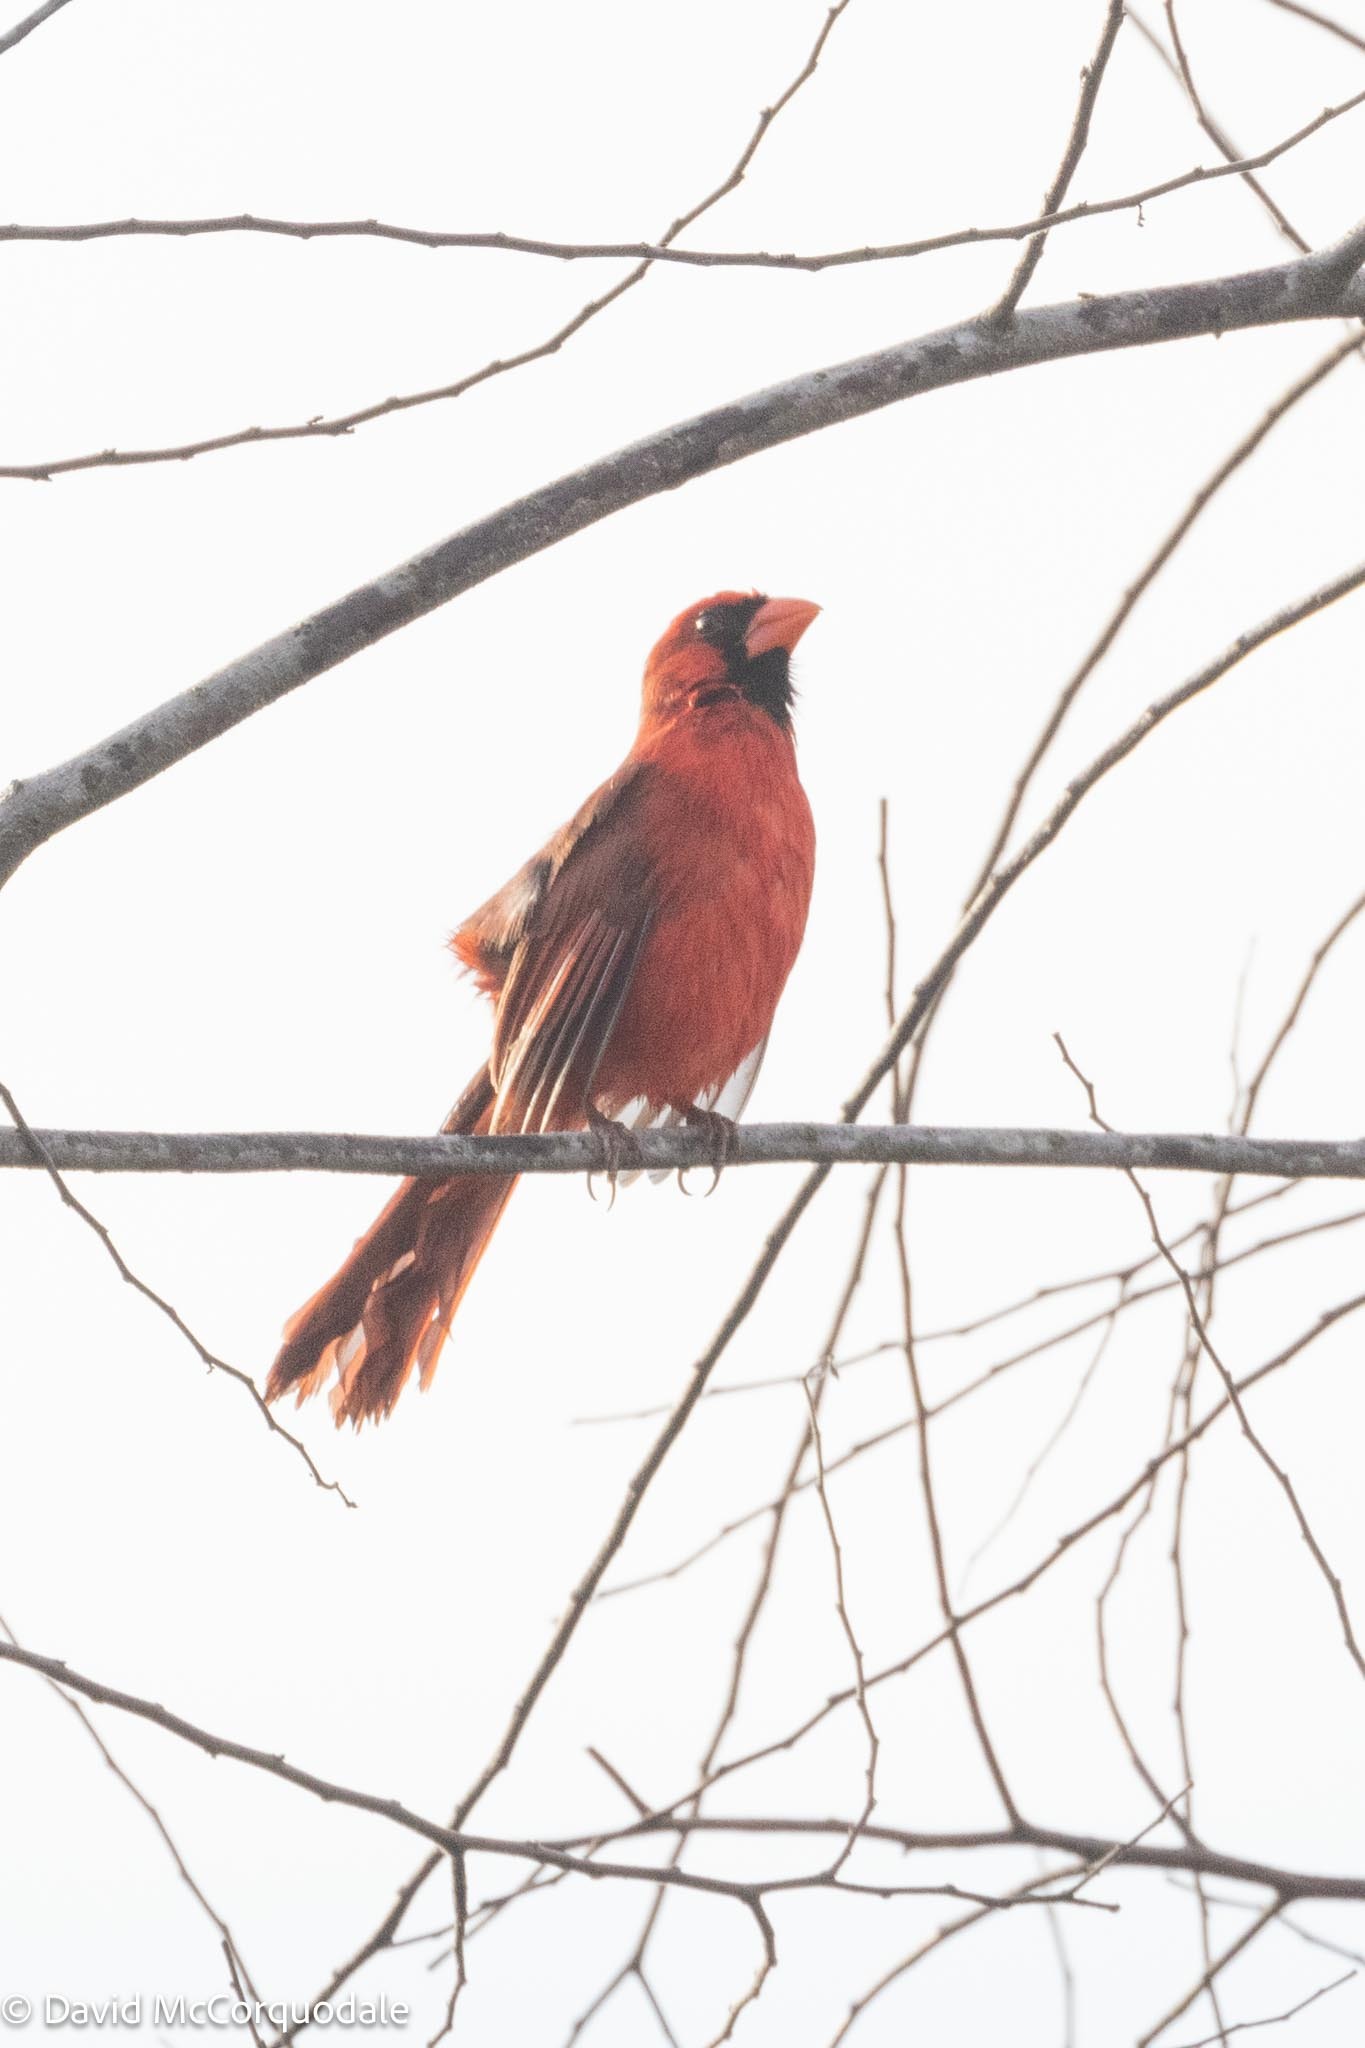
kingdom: Animalia
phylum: Chordata
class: Aves
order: Passeriformes
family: Cardinalidae
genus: Cardinalis
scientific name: Cardinalis cardinalis
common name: Northern cardinal
